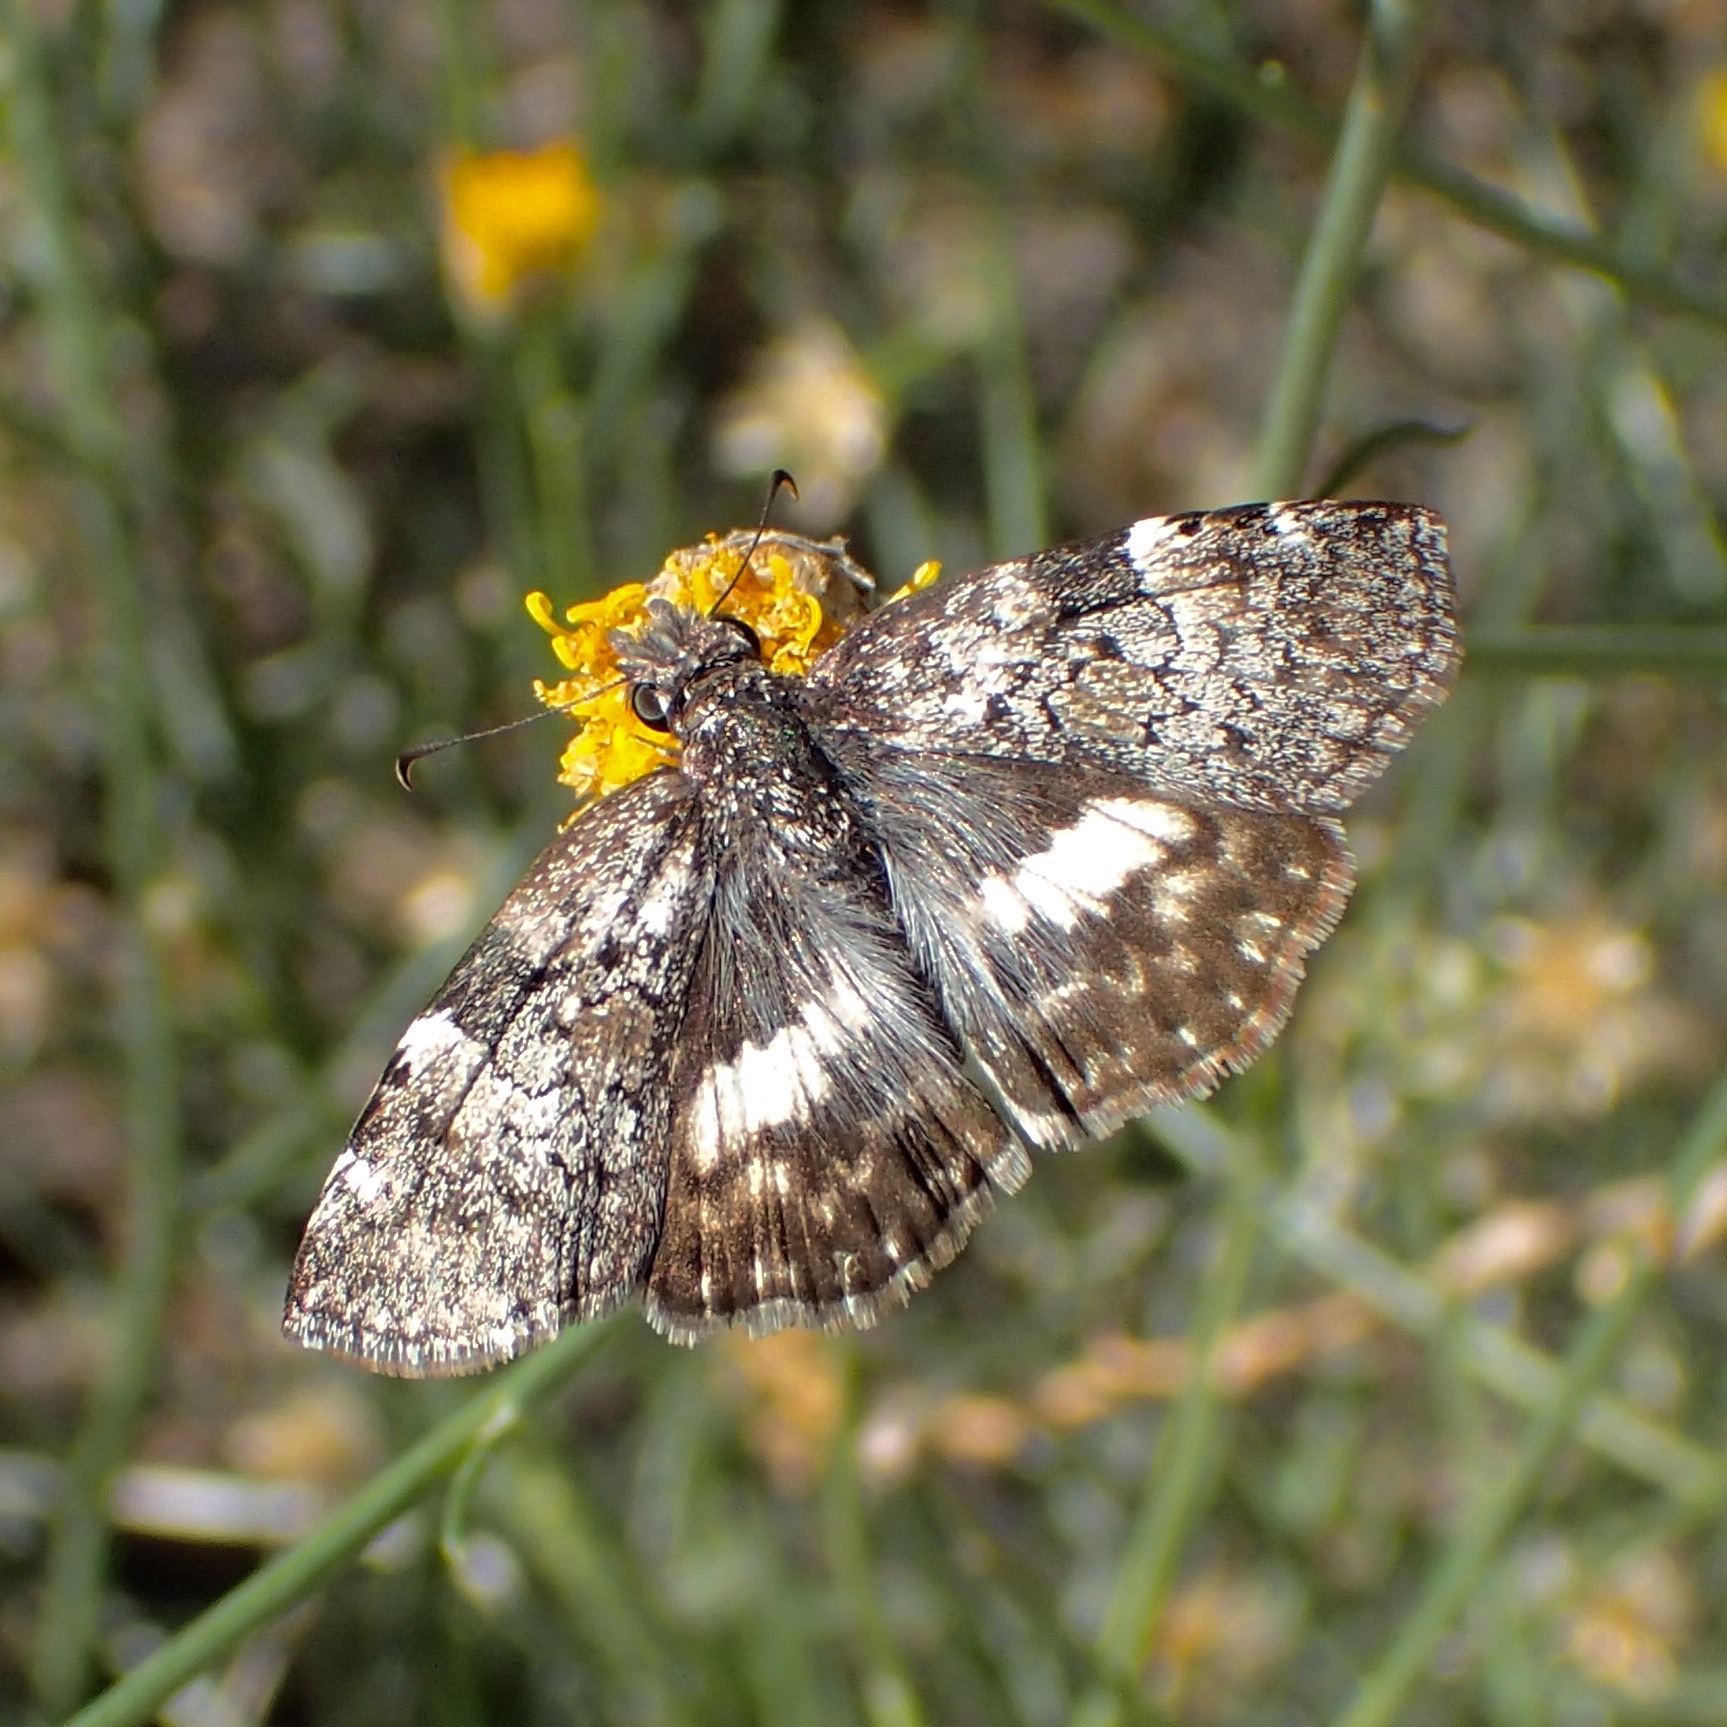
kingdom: Animalia
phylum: Arthropoda
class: Insecta
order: Lepidoptera
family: Hesperiidae
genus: Chiothion
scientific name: Chiothion georgina
